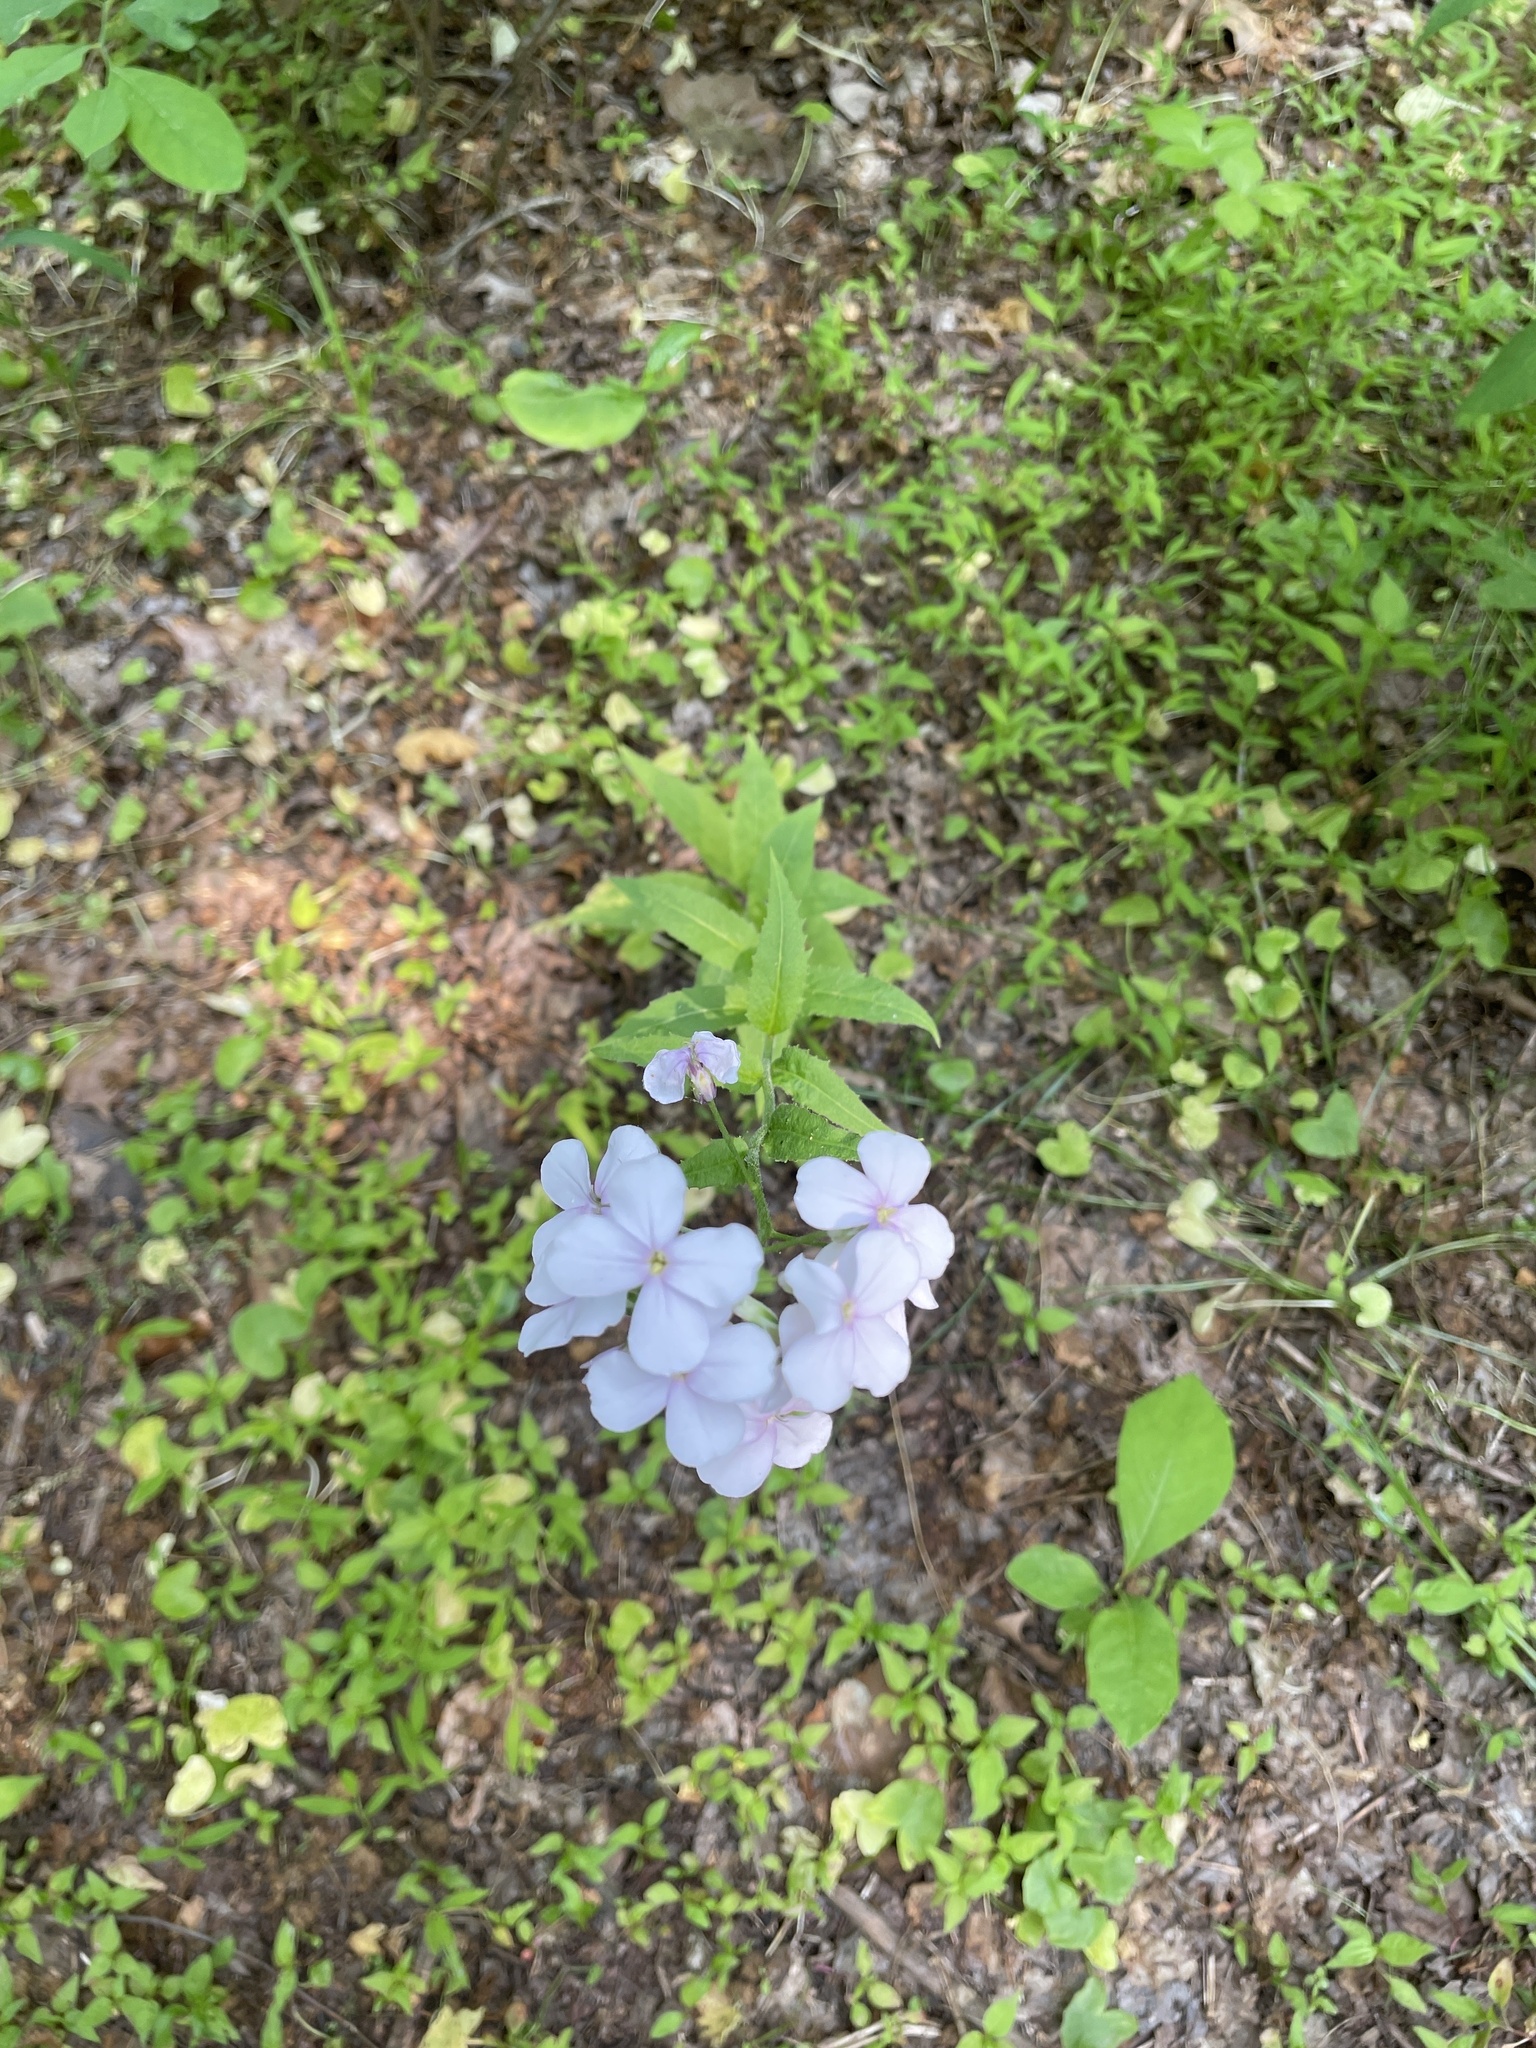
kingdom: Plantae
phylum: Tracheophyta
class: Magnoliopsida
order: Brassicales
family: Brassicaceae
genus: Hesperis
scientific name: Hesperis matronalis
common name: Dame's-violet
